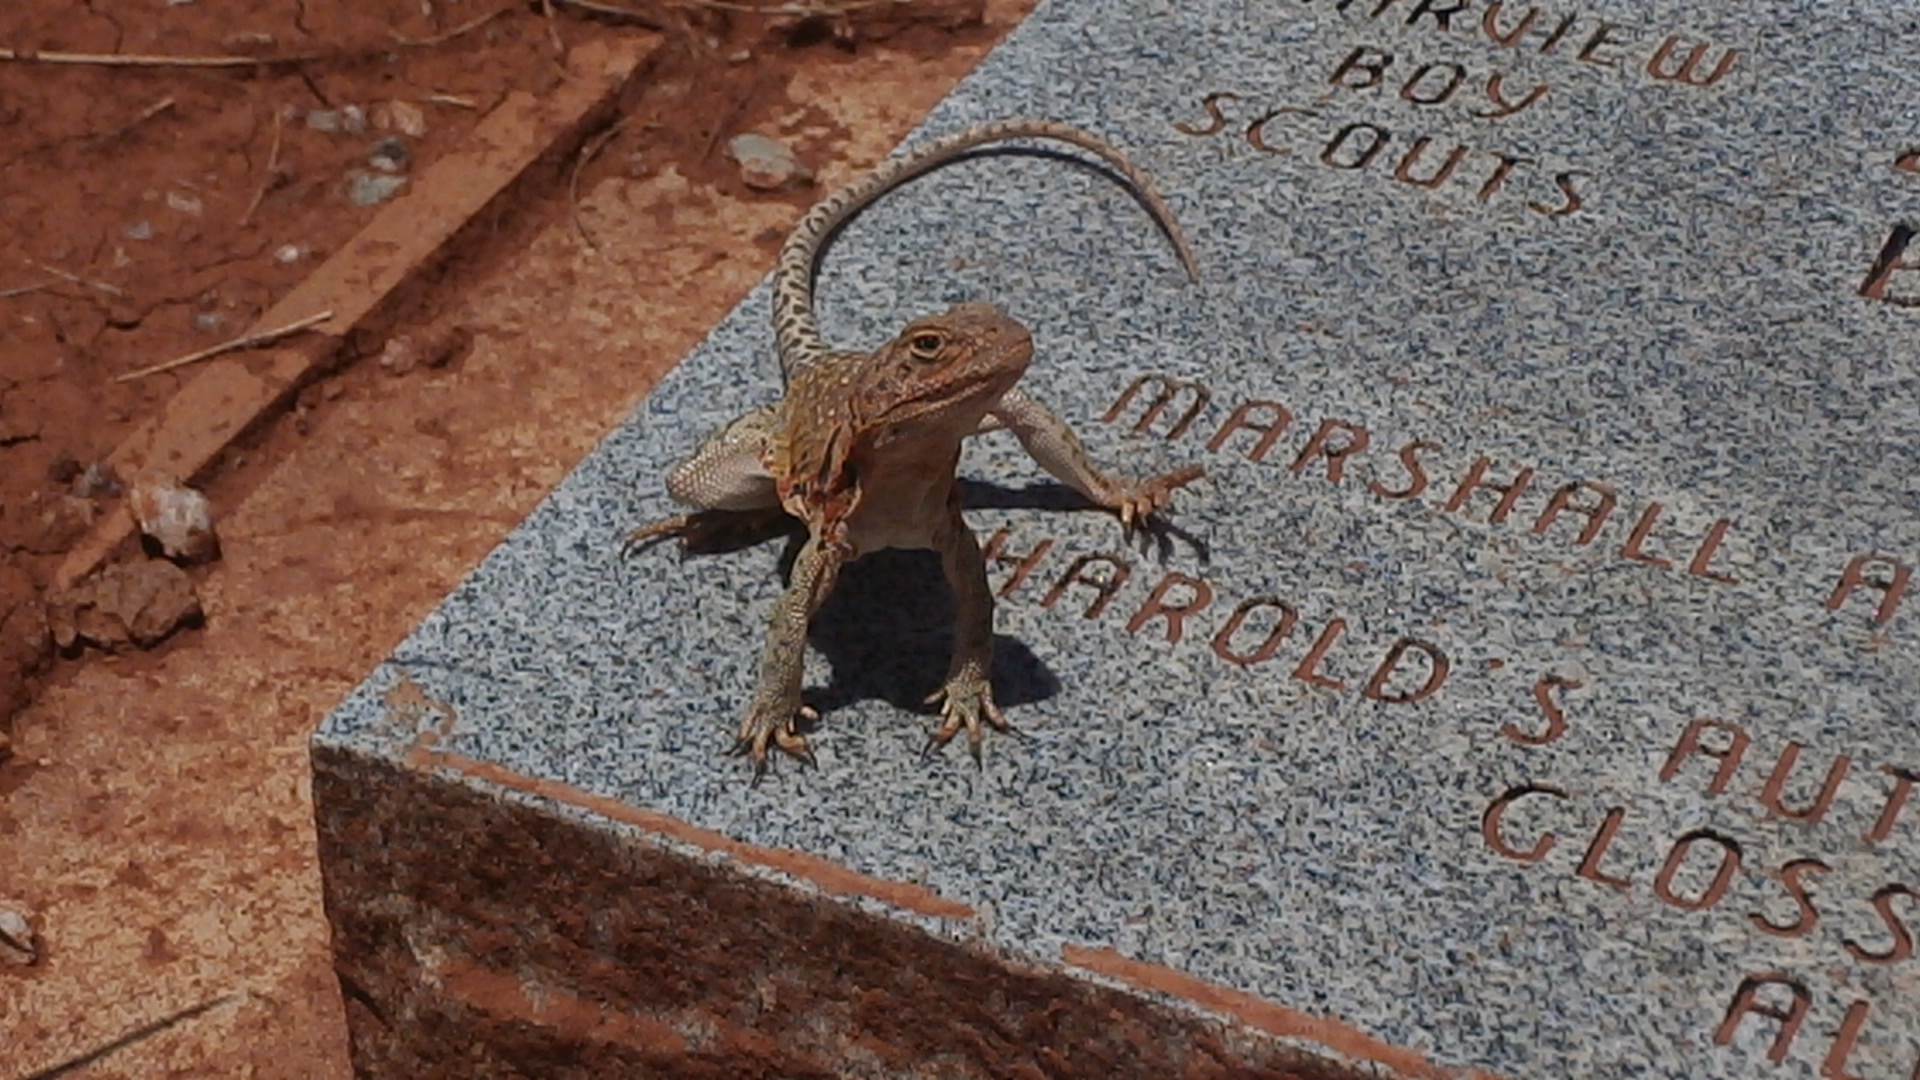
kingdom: Animalia
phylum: Chordata
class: Squamata
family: Crotaphytidae
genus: Crotaphytus
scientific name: Crotaphytus collaris
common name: Collared lizard
